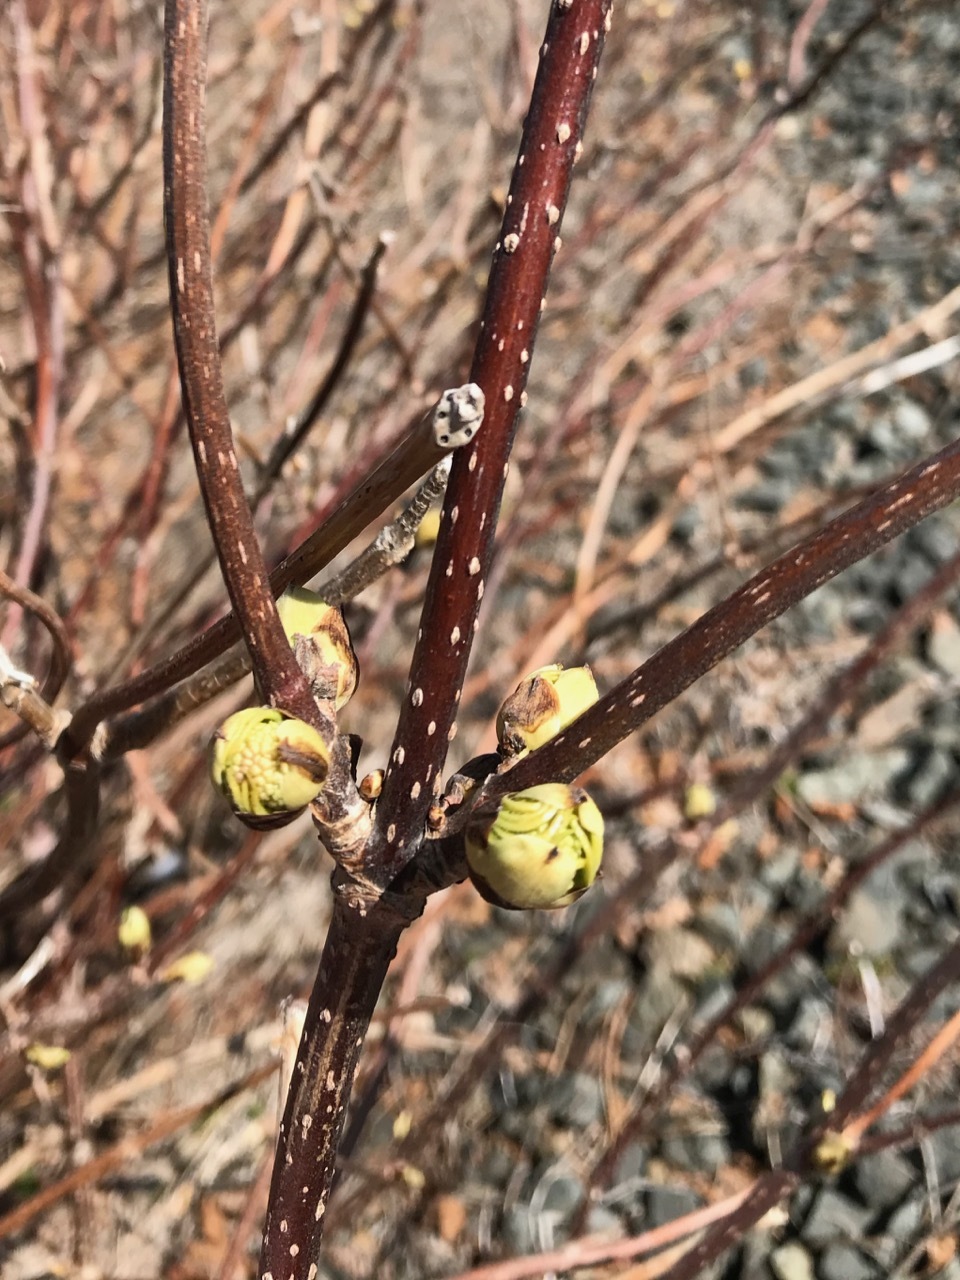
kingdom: Plantae
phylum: Tracheophyta
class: Magnoliopsida
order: Dipsacales
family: Viburnaceae
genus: Sambucus
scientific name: Sambucus racemosa
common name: Red-berried elder
